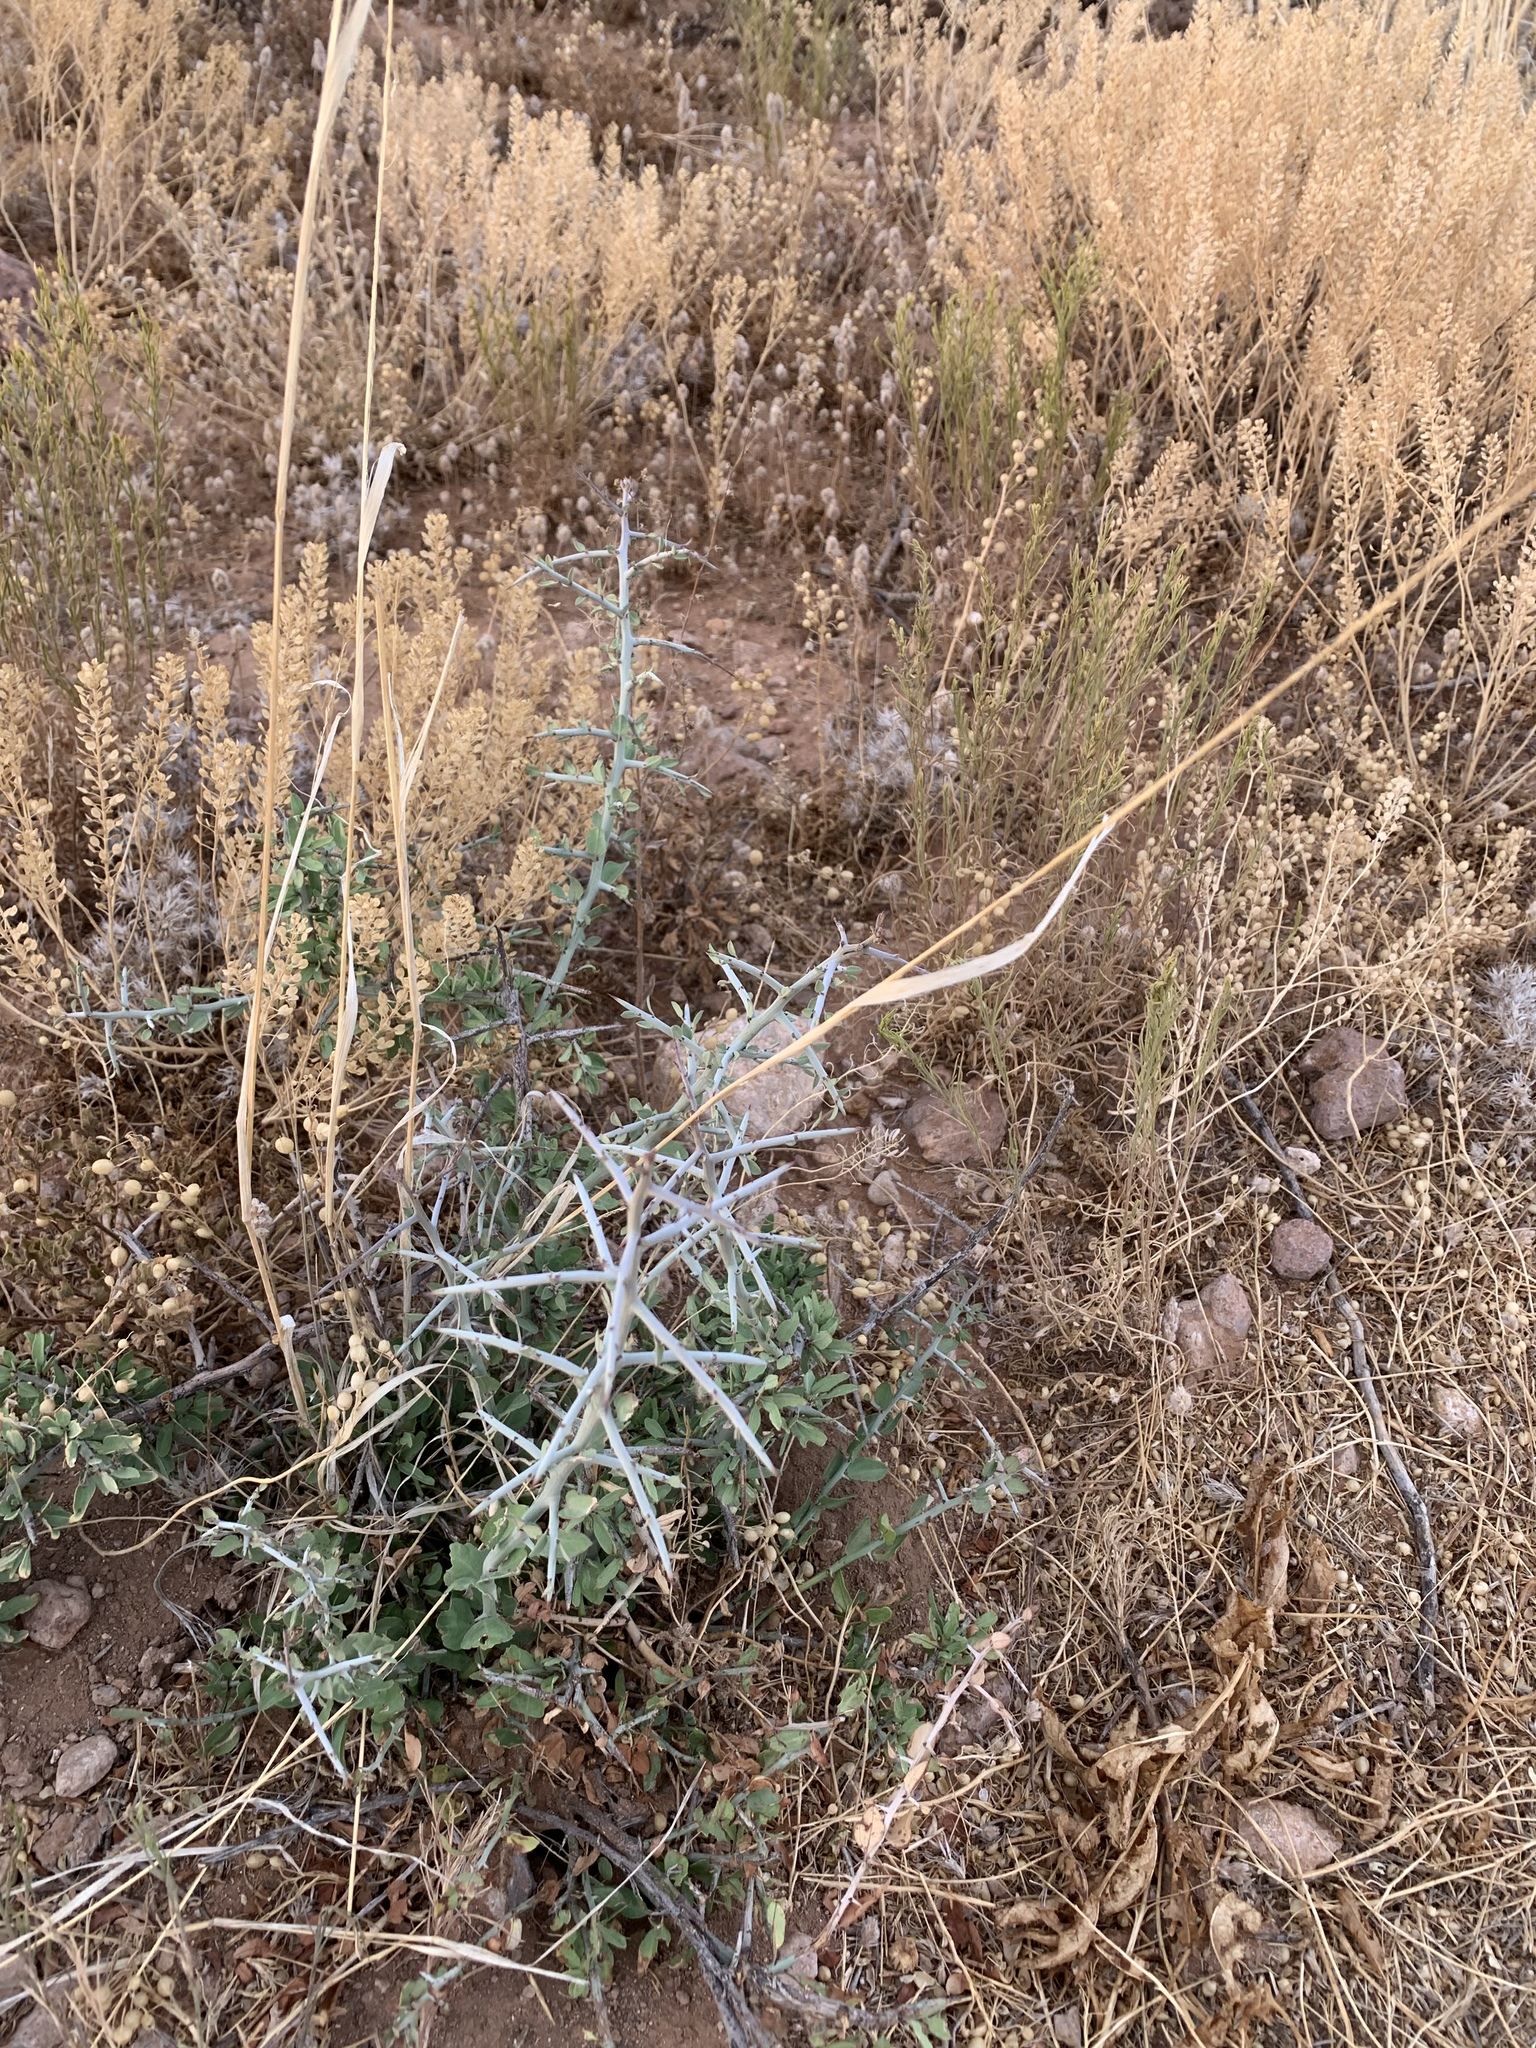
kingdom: Plantae
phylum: Tracheophyta
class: Magnoliopsida
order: Rosales
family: Rhamnaceae
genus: Sarcomphalus
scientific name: Sarcomphalus obtusifolius
